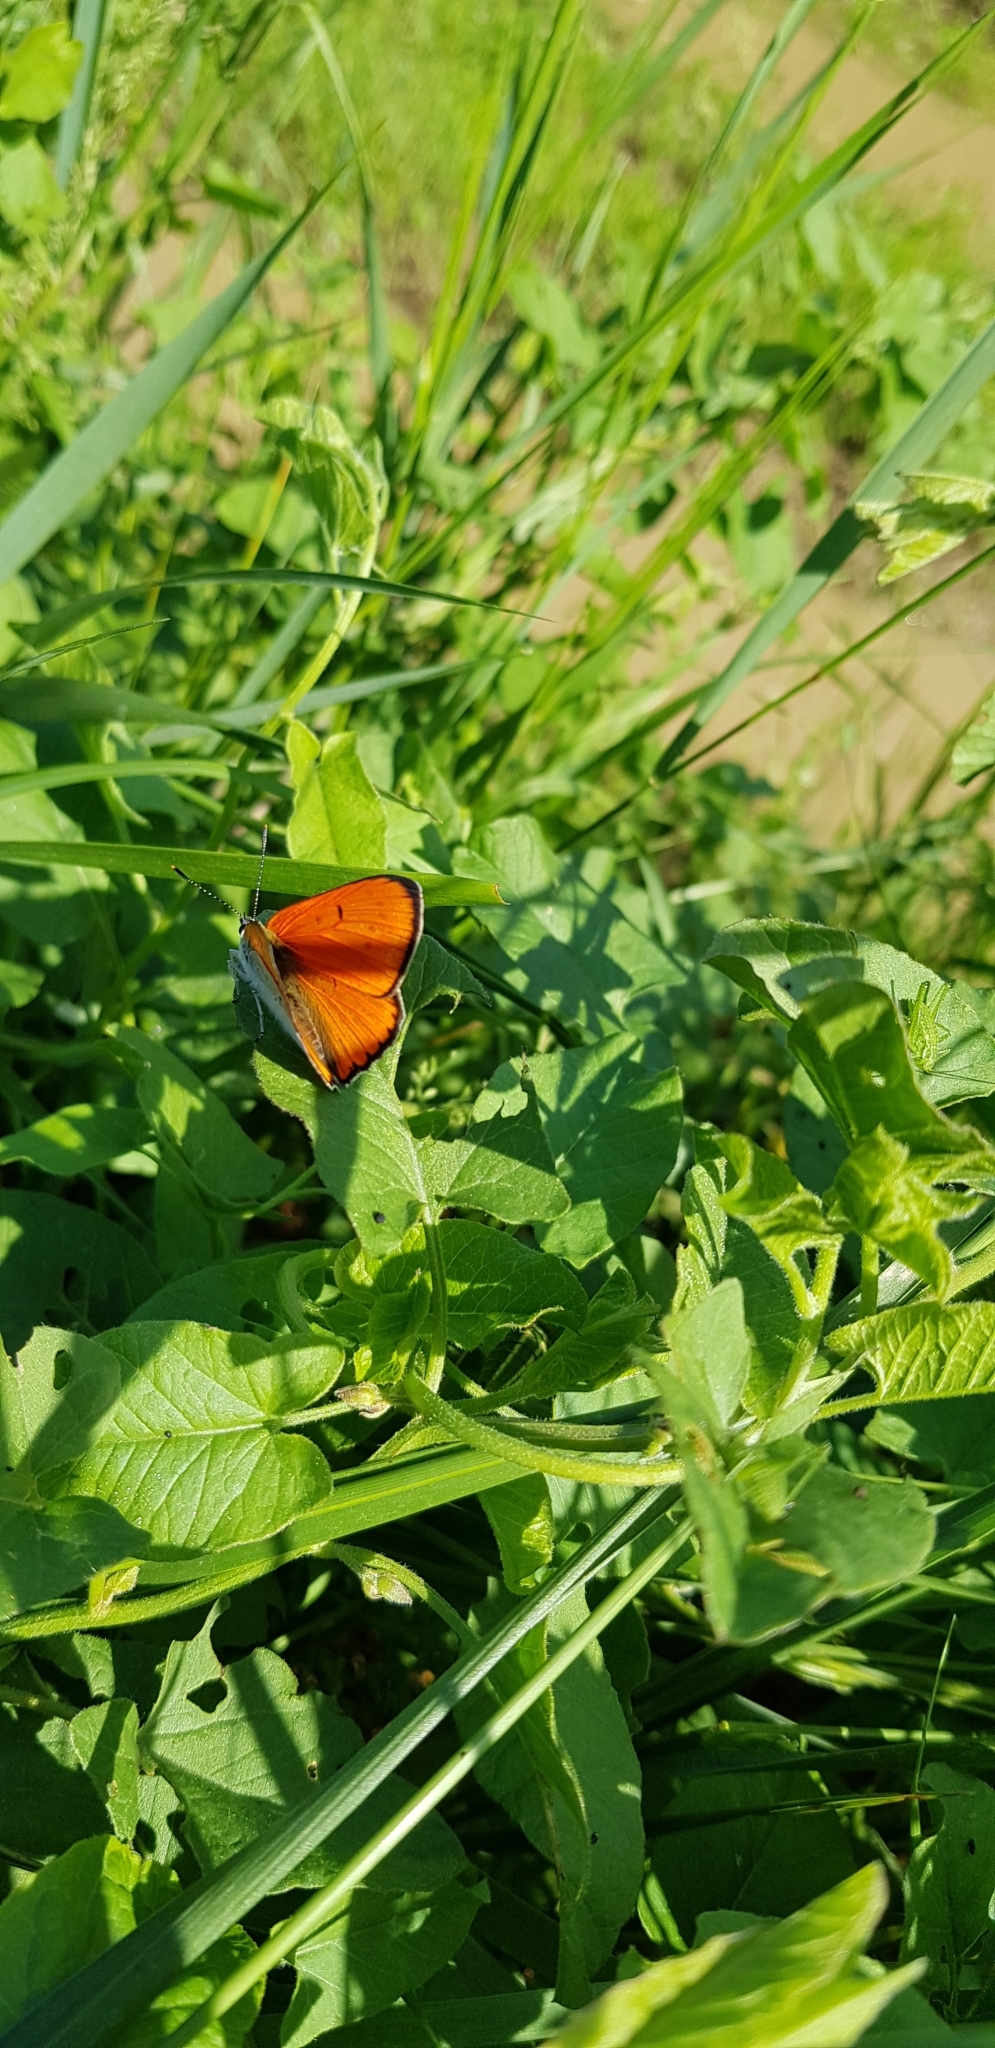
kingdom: Animalia
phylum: Arthropoda
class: Insecta
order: Lepidoptera
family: Lycaenidae
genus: Lycaena
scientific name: Lycaena dispar
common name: Large copper
